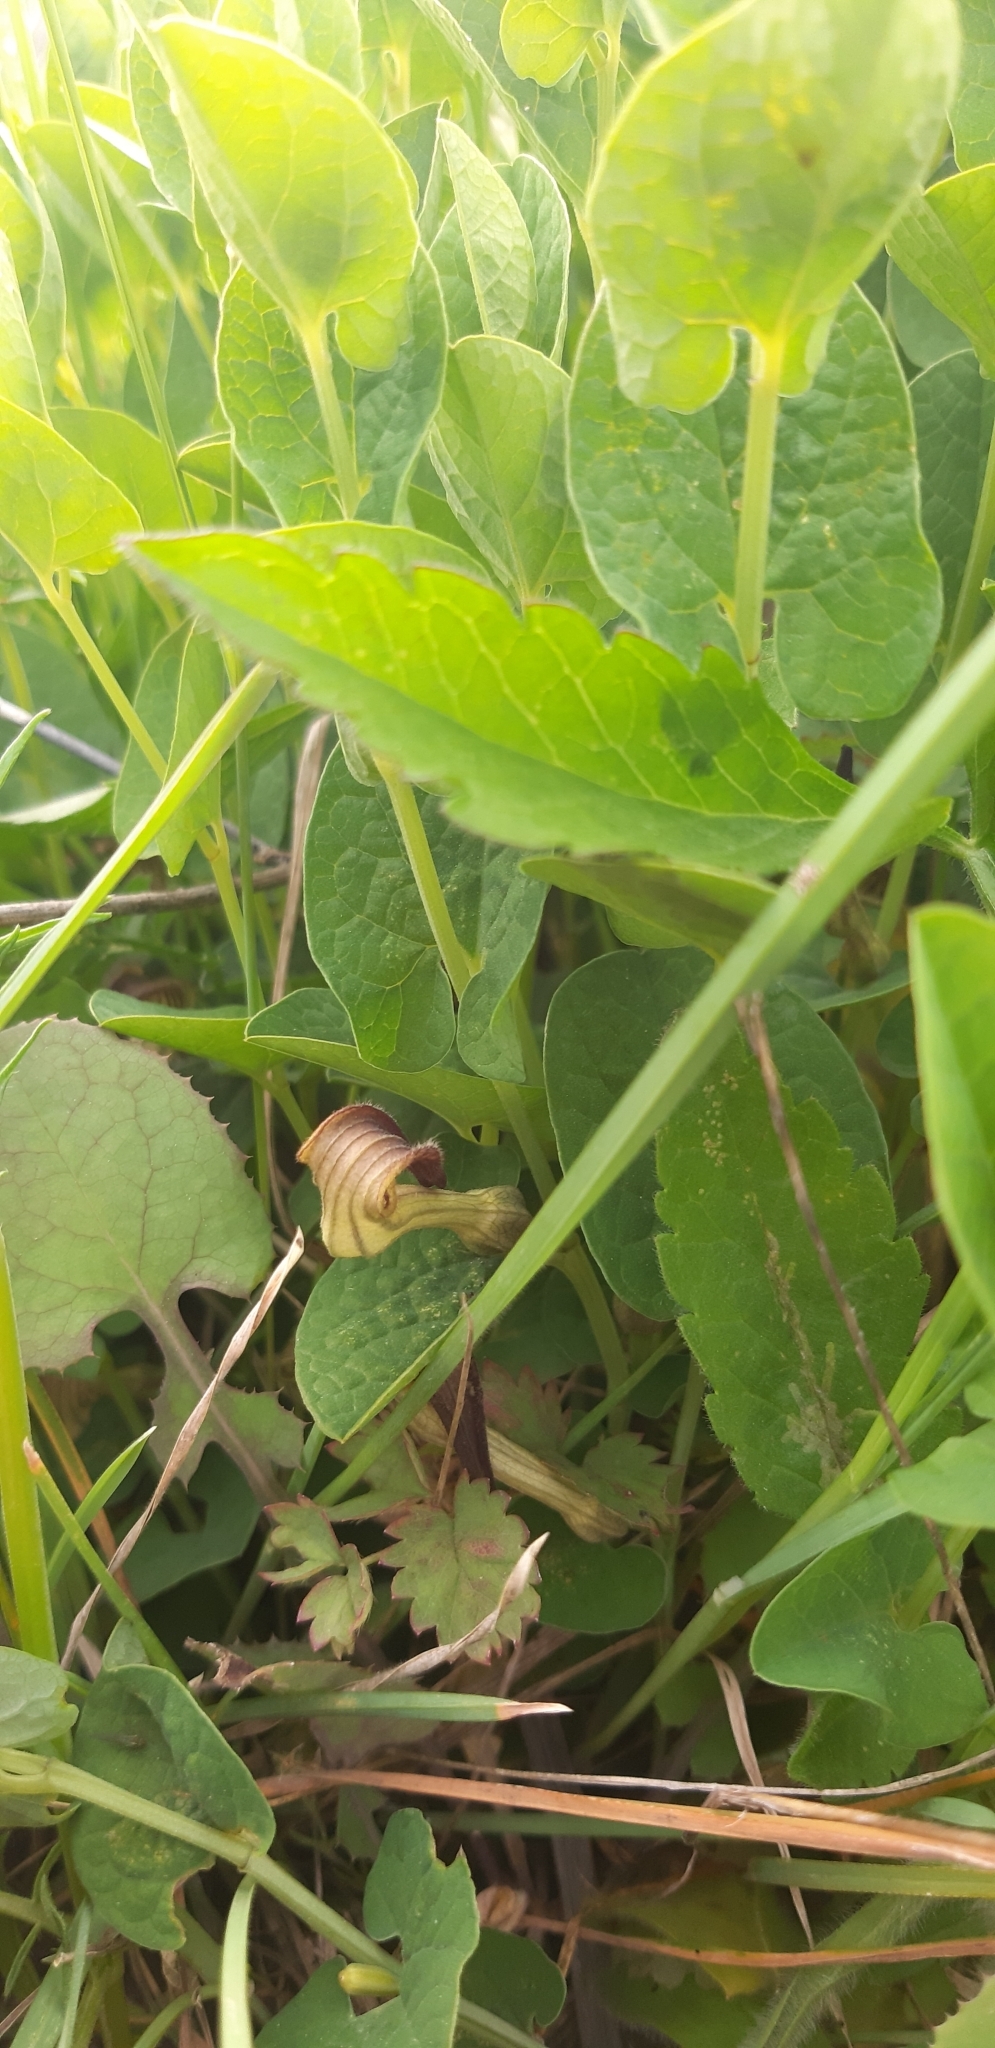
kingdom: Plantae
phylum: Tracheophyta
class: Magnoliopsida
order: Piperales
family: Aristolochiaceae
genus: Aristolochia
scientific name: Aristolochia clusii
